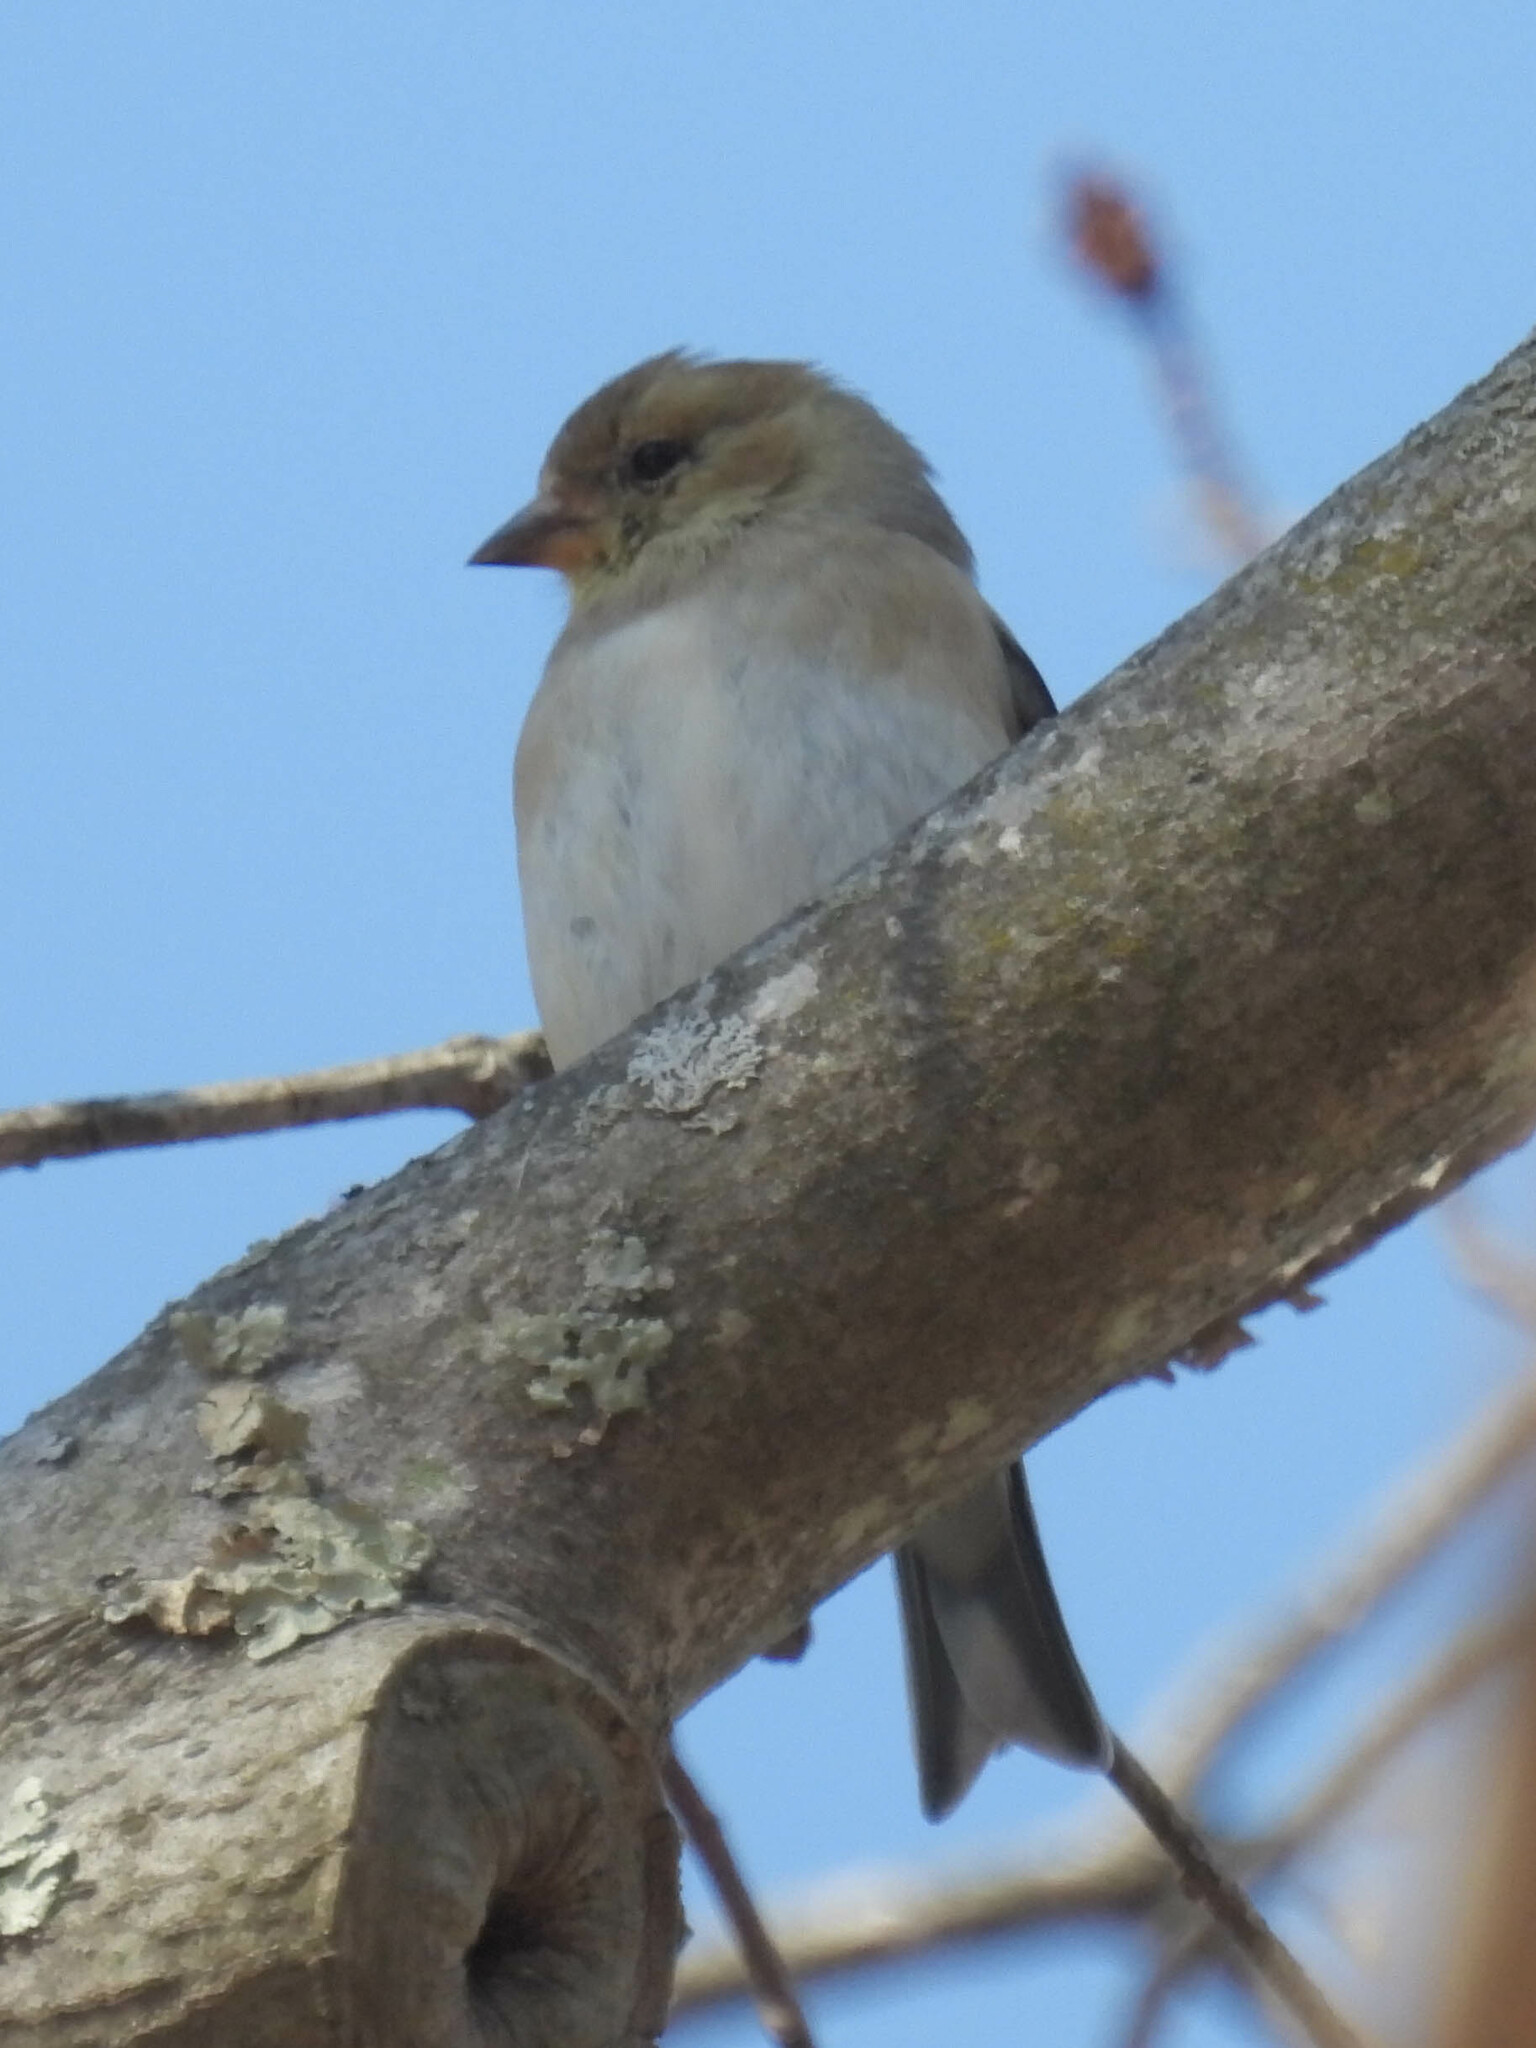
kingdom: Animalia
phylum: Chordata
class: Aves
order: Passeriformes
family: Fringillidae
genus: Spinus
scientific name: Spinus tristis
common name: American goldfinch
